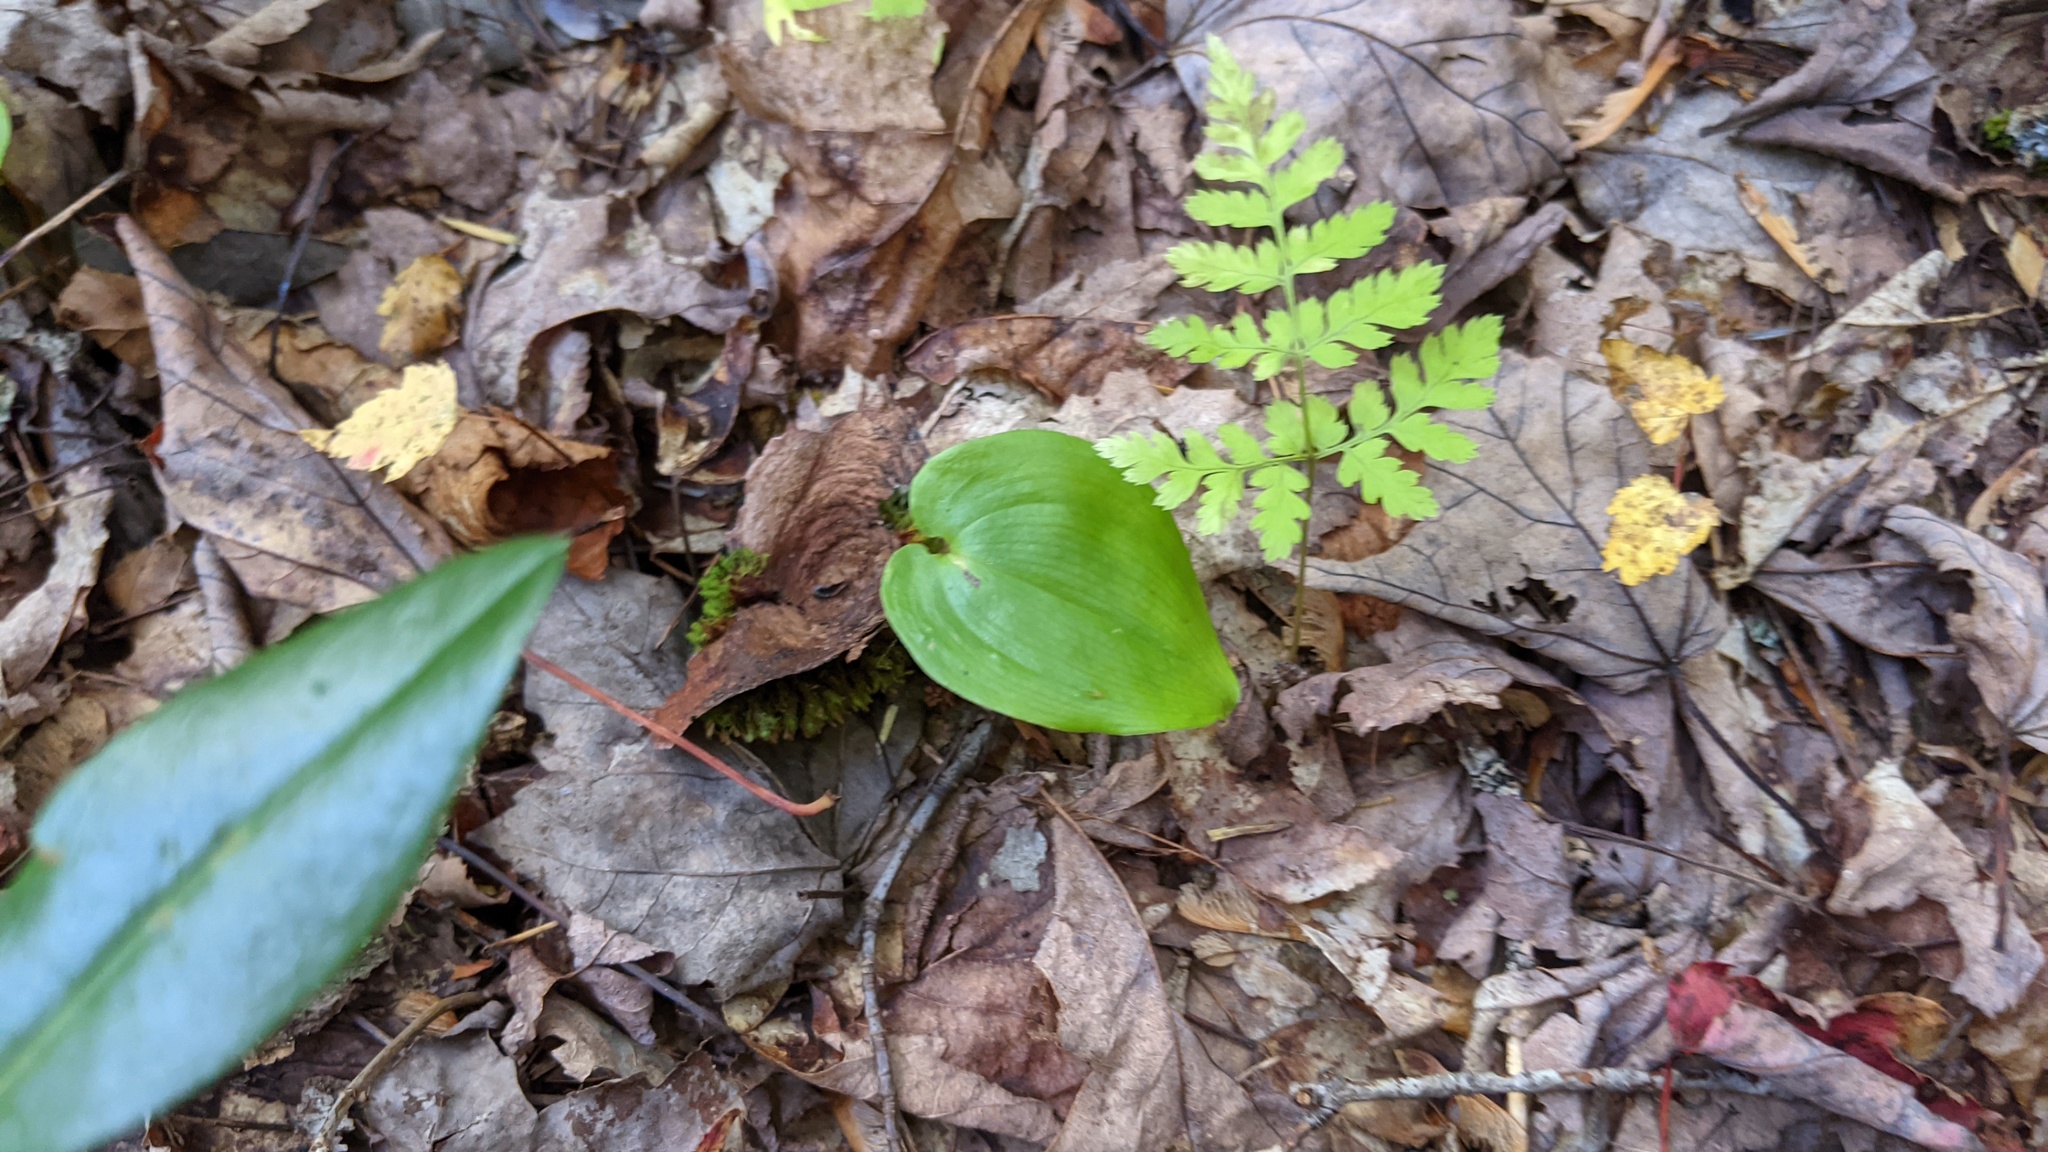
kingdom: Plantae
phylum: Tracheophyta
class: Liliopsida
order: Asparagales
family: Asparagaceae
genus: Maianthemum
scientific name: Maianthemum canadense
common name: False lily-of-the-valley
